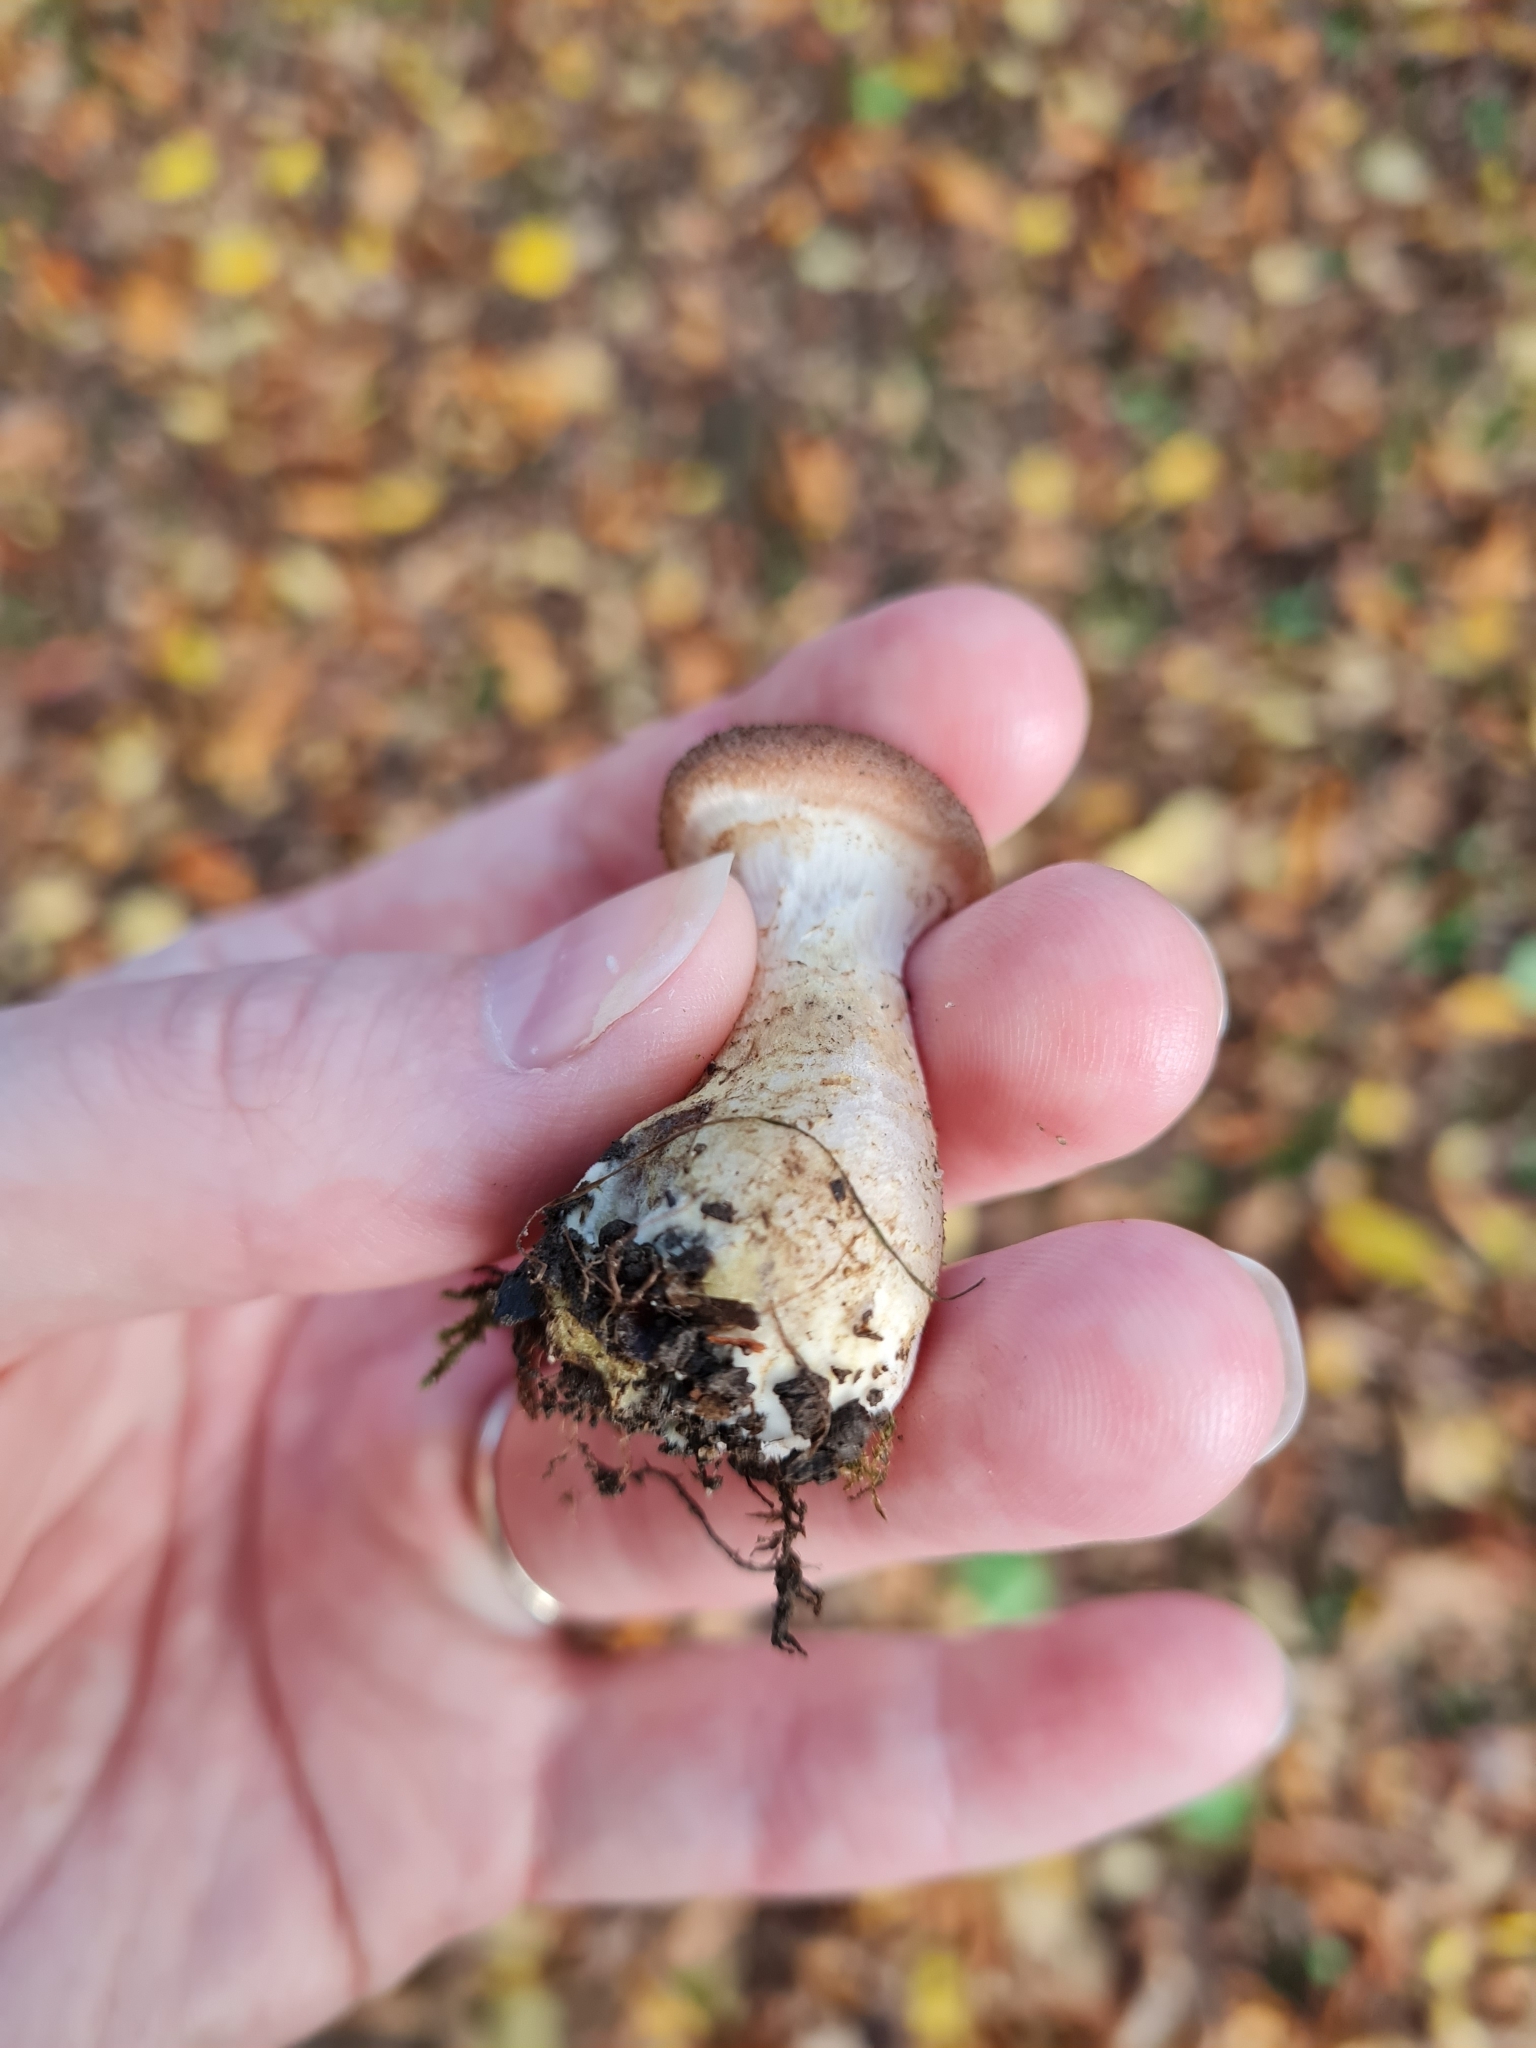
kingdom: Fungi
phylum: Basidiomycota
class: Agaricomycetes
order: Agaricales
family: Physalacriaceae
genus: Armillaria
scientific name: Armillaria gallica
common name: Bulbous honey fungus
